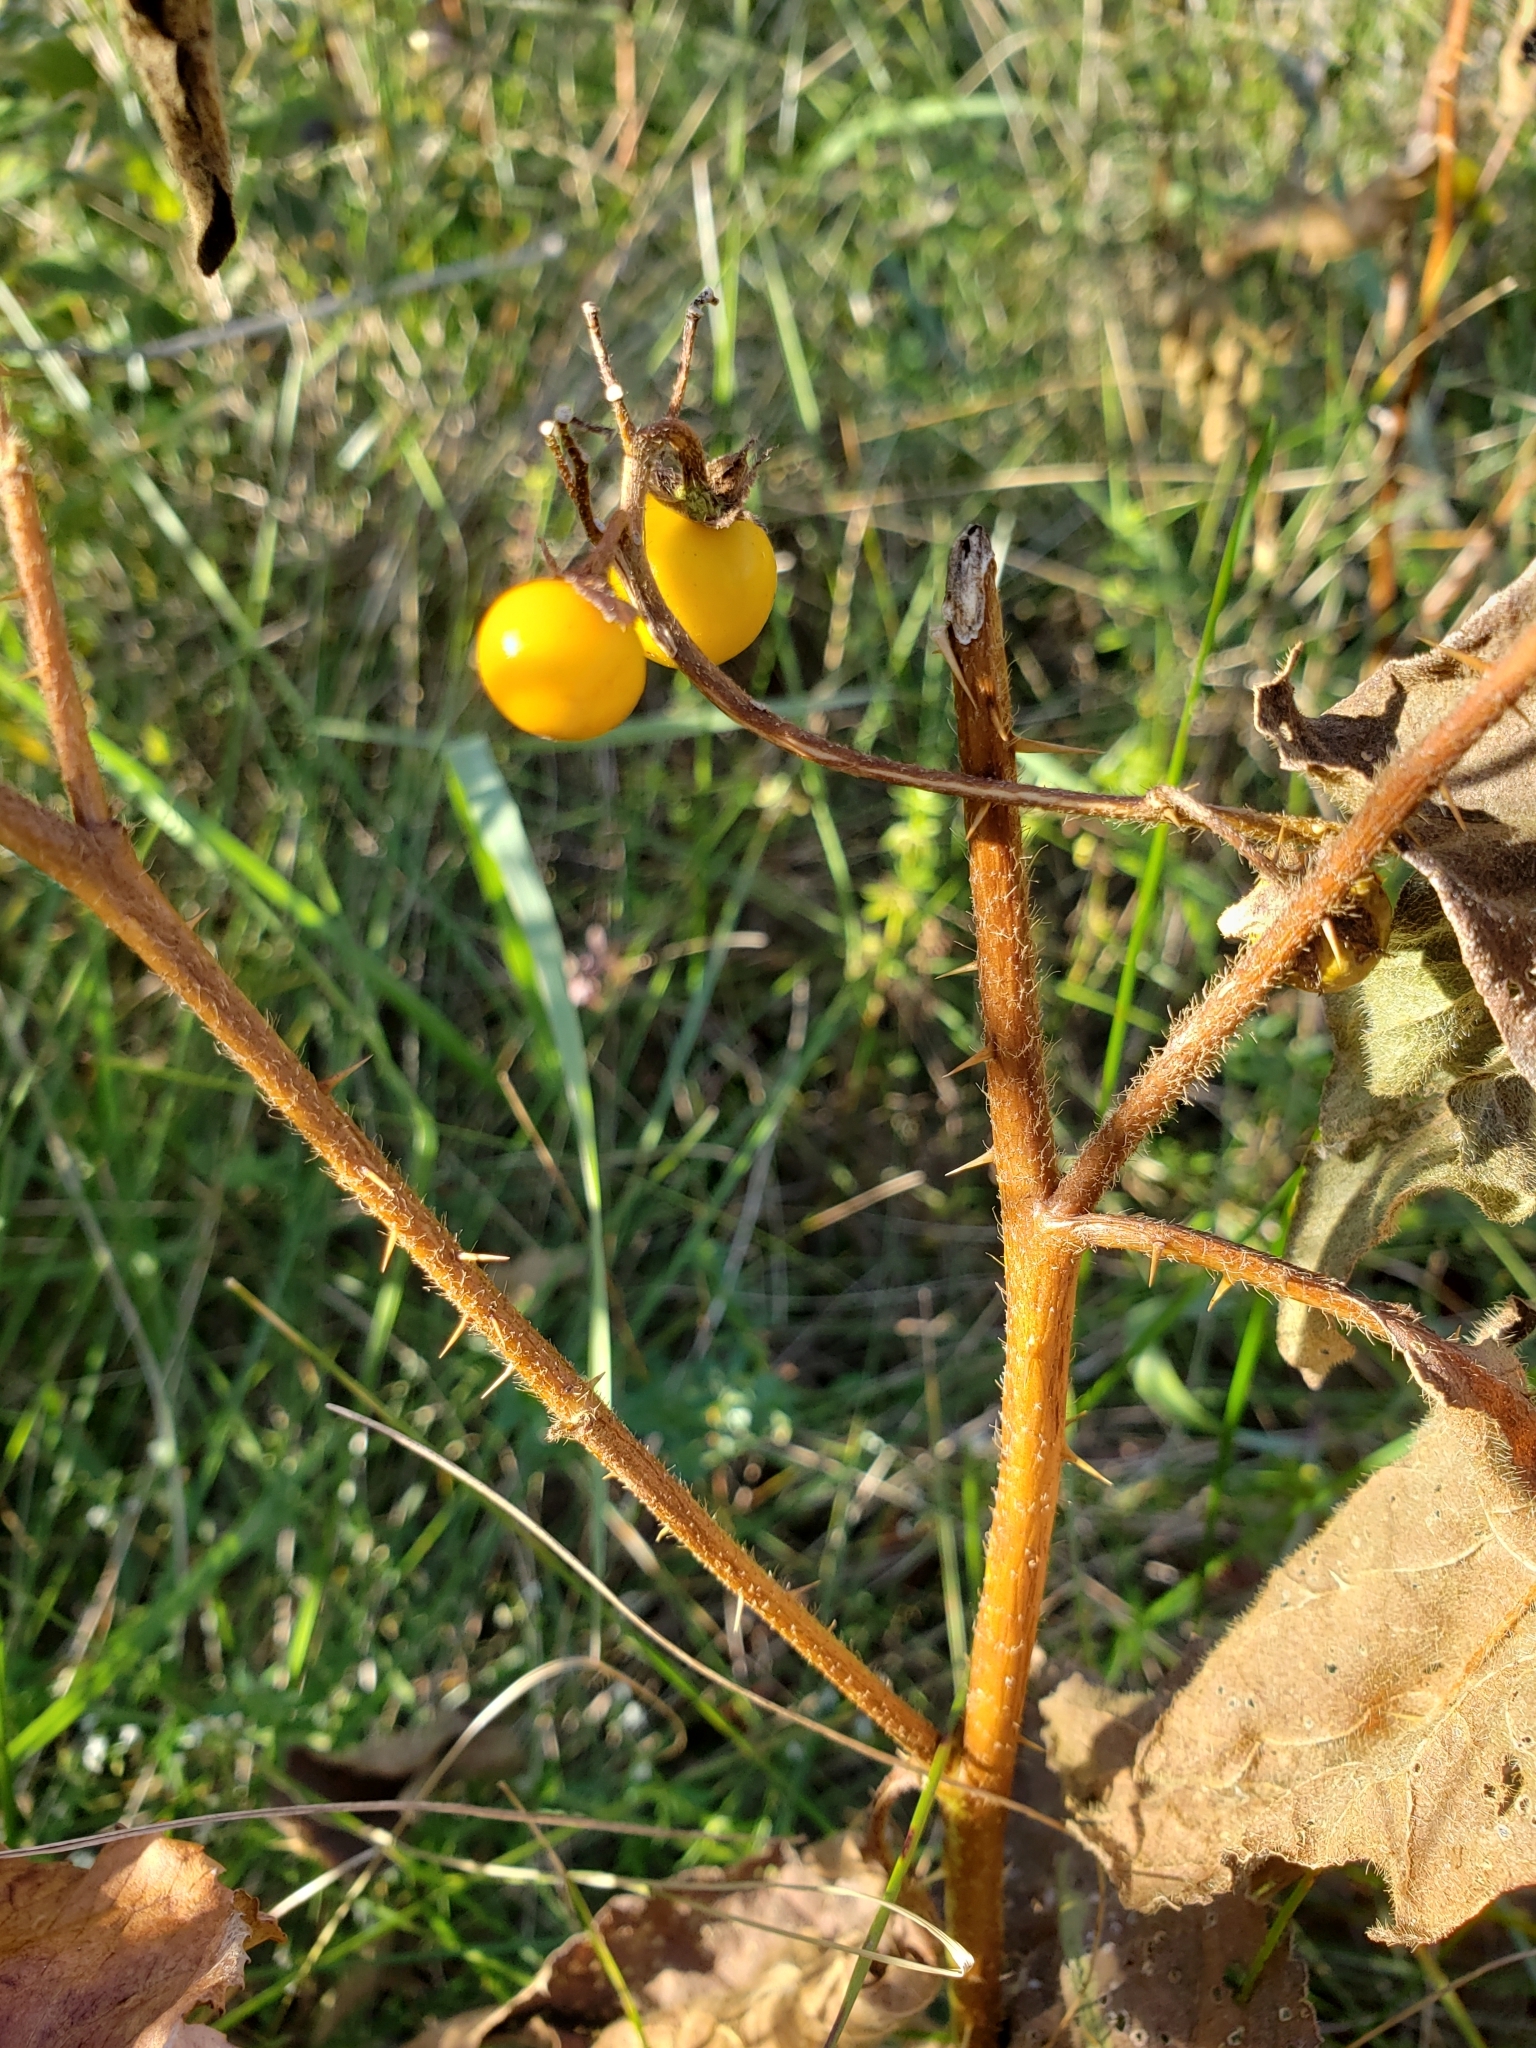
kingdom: Plantae
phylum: Tracheophyta
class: Magnoliopsida
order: Solanales
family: Solanaceae
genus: Solanum
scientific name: Solanum carolinense
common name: Horse-nettle
